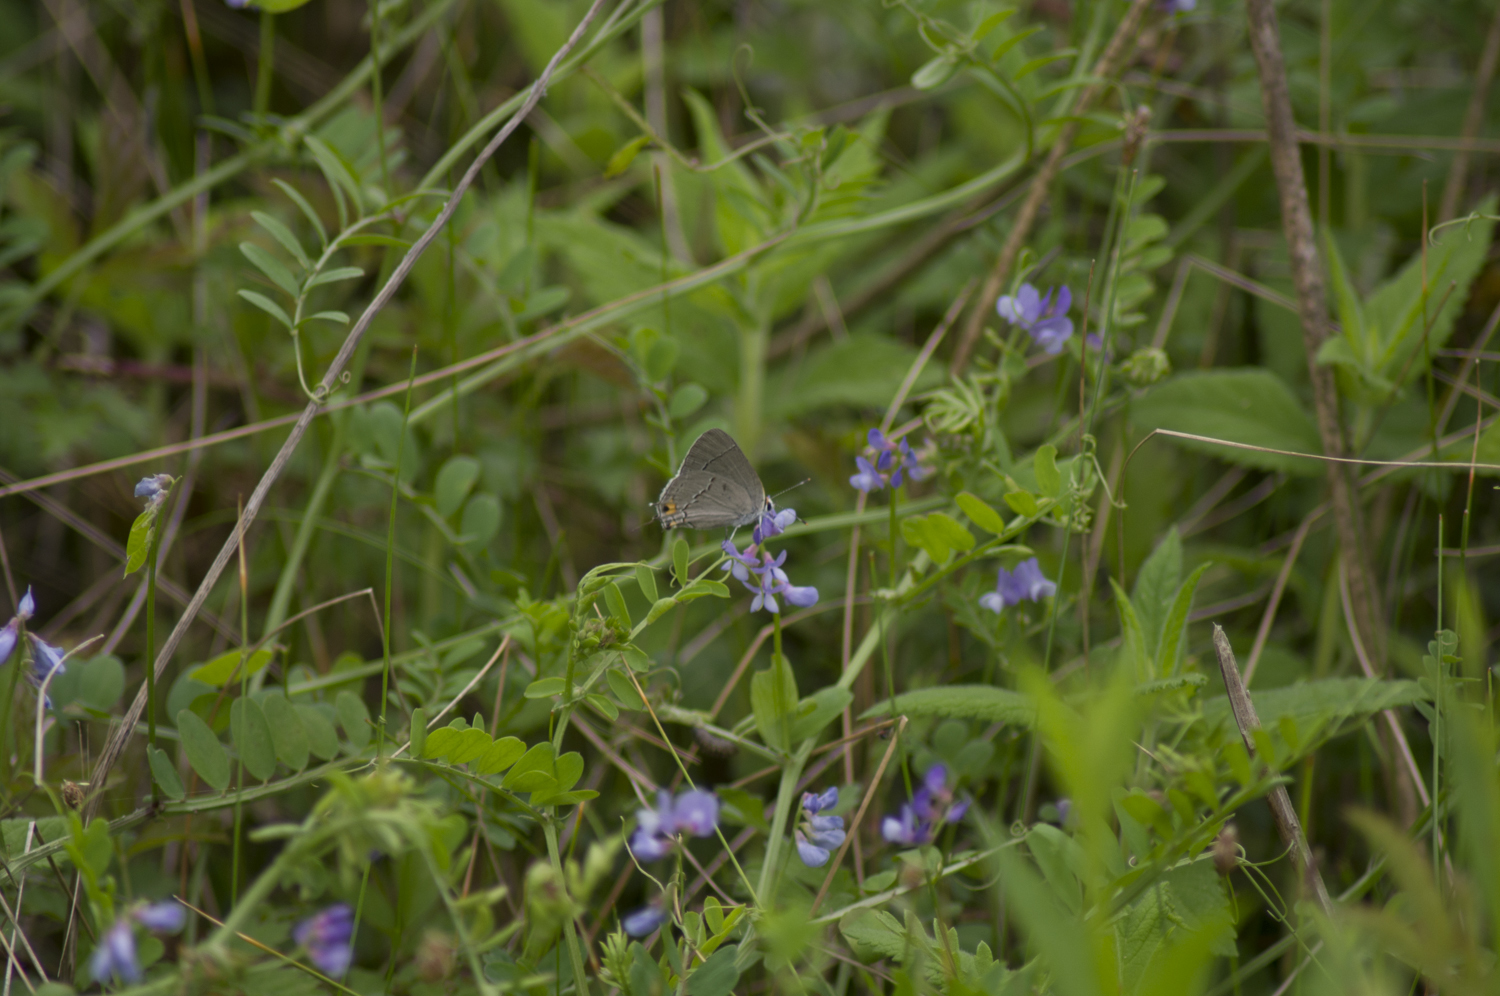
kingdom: Animalia
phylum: Arthropoda
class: Insecta
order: Lepidoptera
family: Lycaenidae
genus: Strymon
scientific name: Strymon melinus
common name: Gray hairstreak
